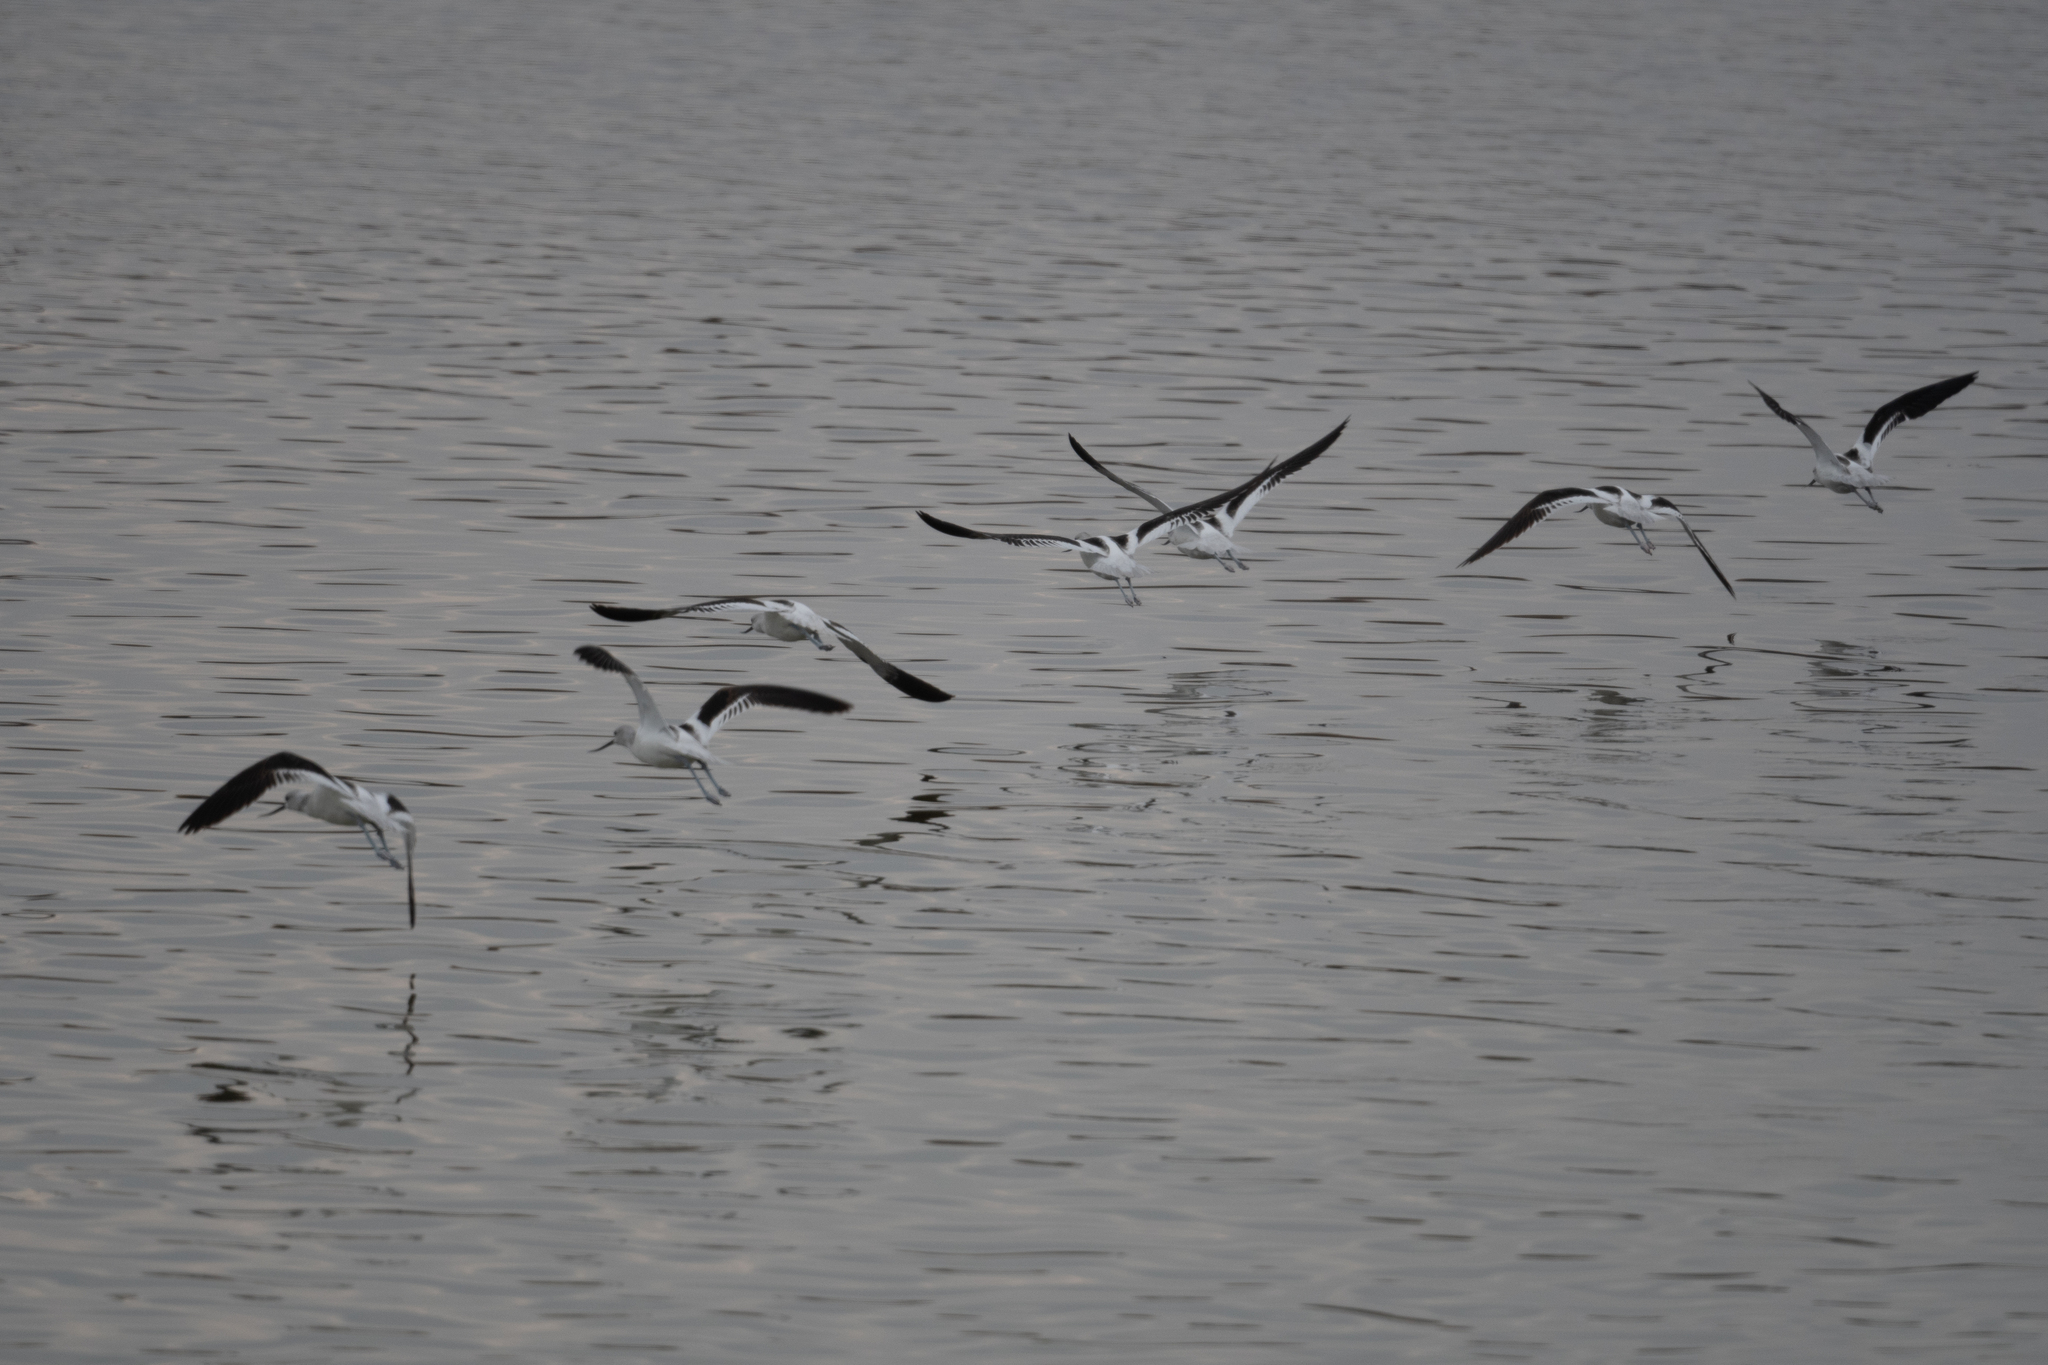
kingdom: Animalia
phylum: Chordata
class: Aves
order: Charadriiformes
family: Recurvirostridae
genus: Recurvirostra
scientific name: Recurvirostra americana
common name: American avocet
